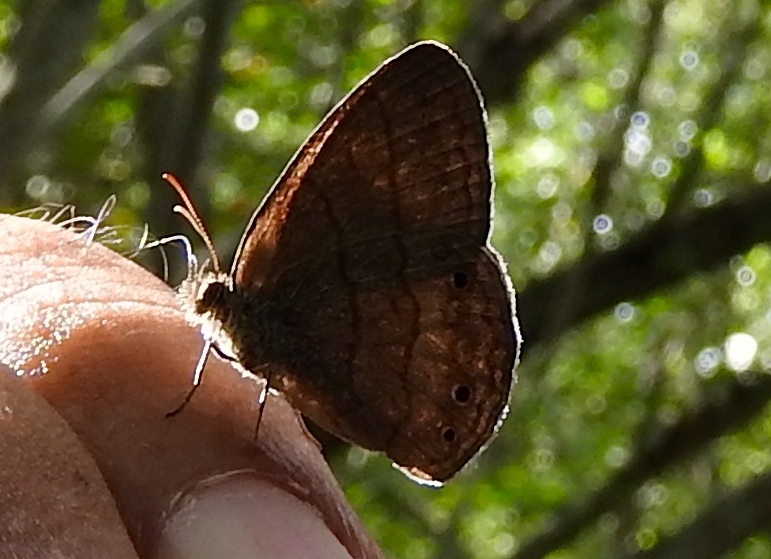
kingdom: Animalia
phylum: Arthropoda
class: Insecta
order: Lepidoptera
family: Nymphalidae
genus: Hermeuptychia
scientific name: Hermeuptychia
